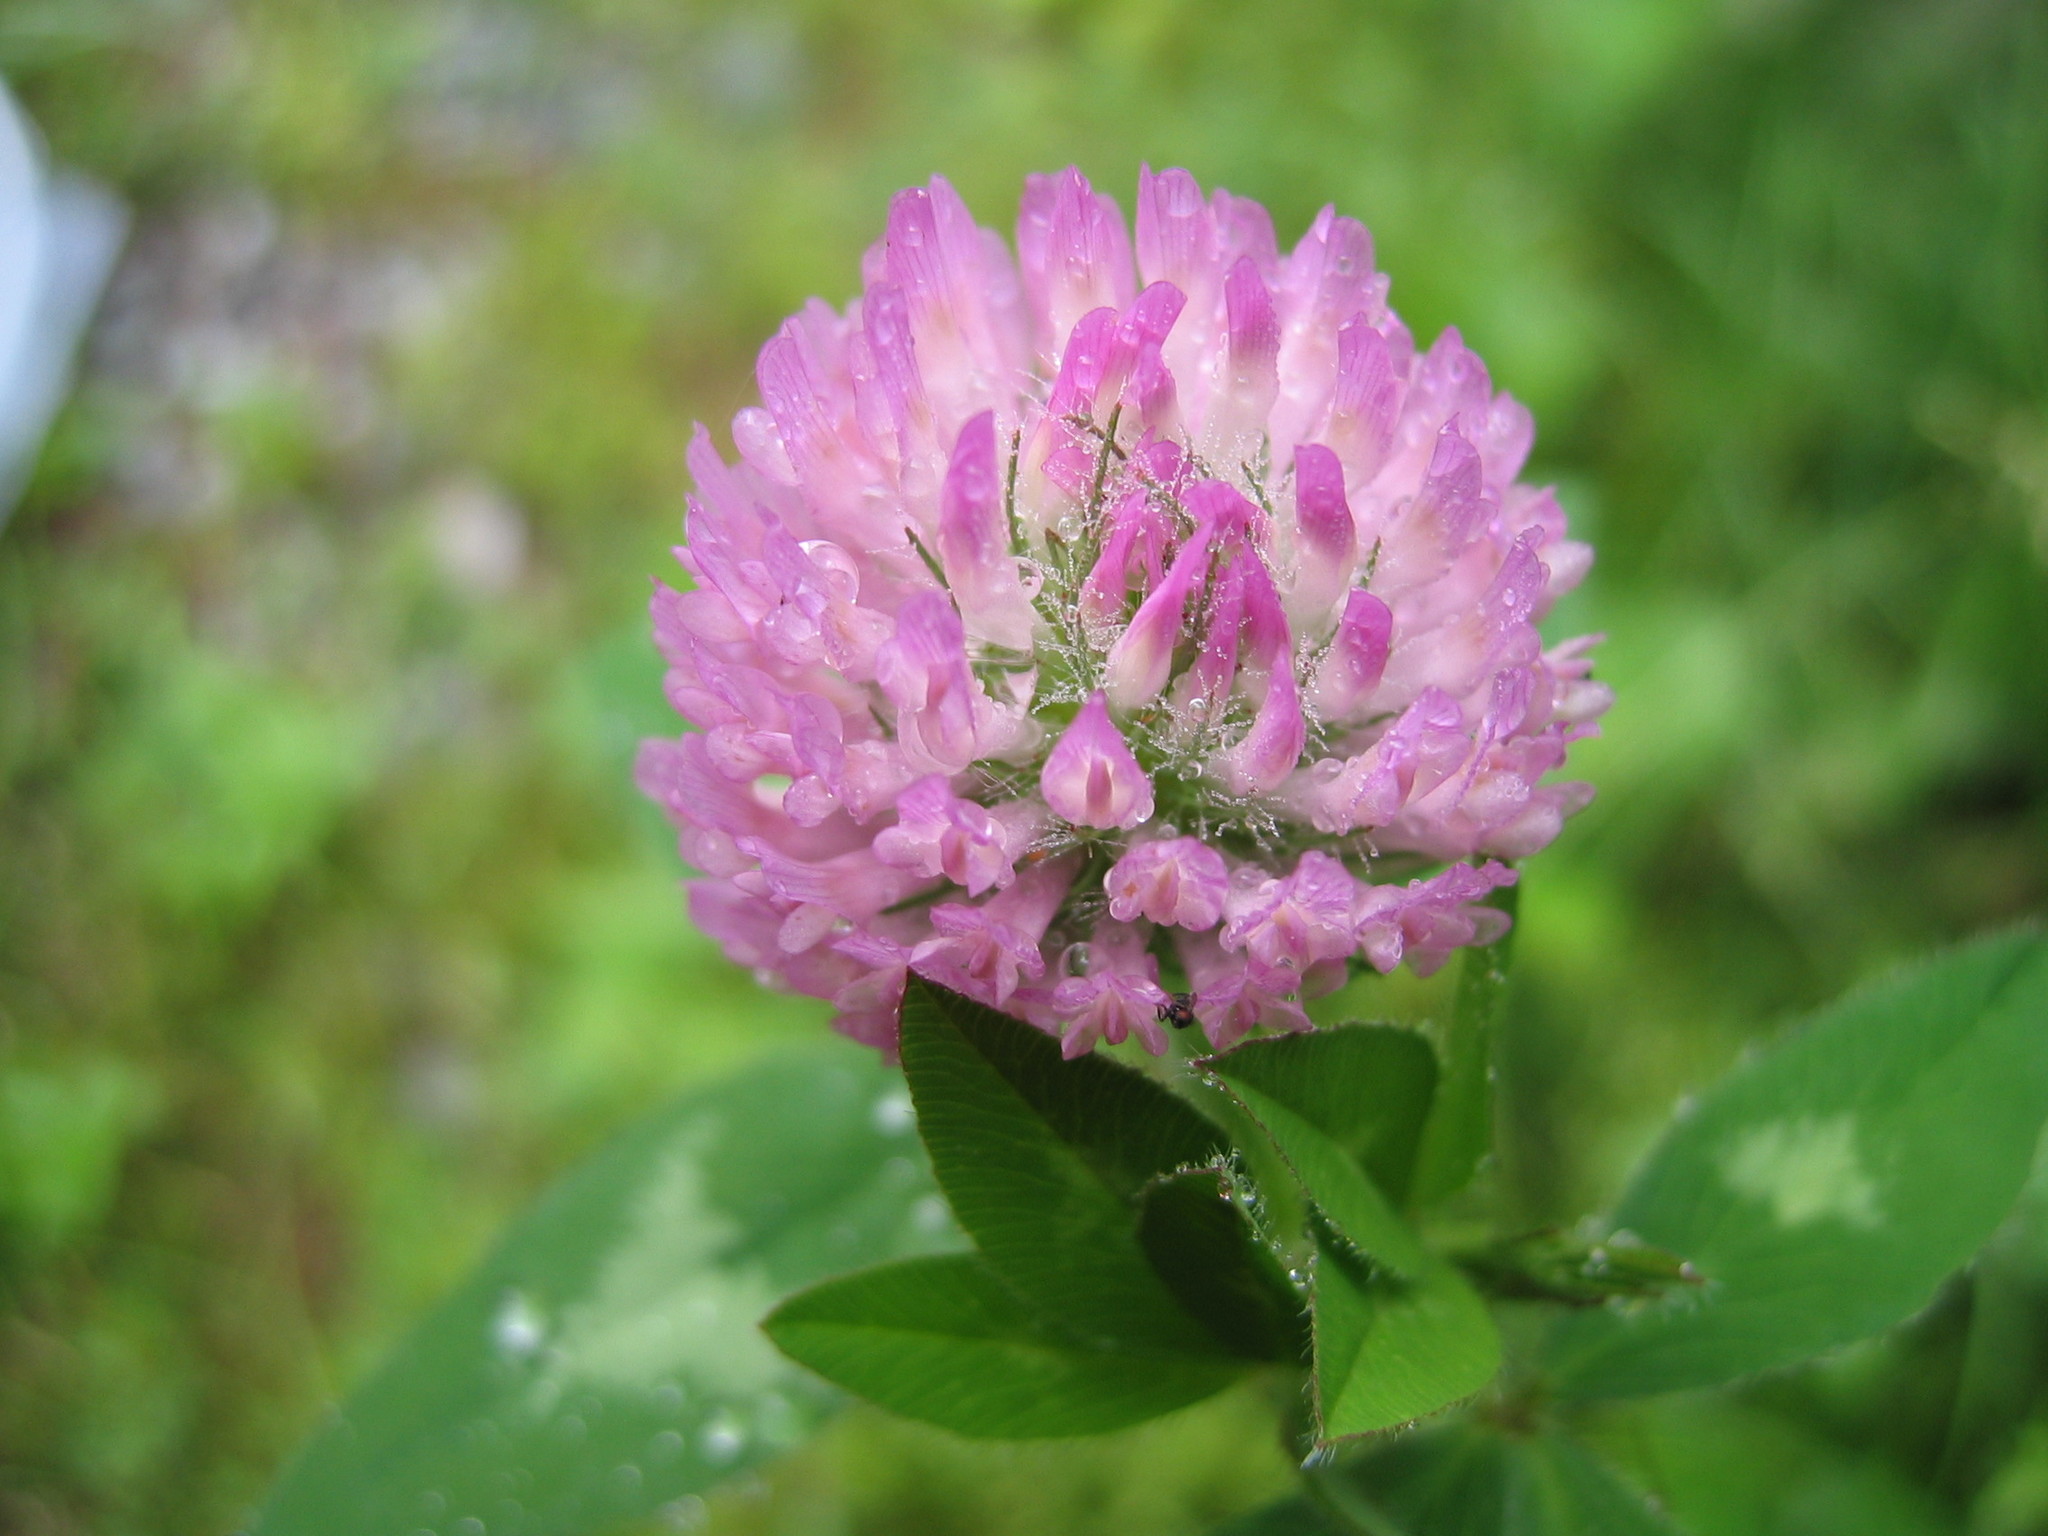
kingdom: Plantae
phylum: Tracheophyta
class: Magnoliopsida
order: Fabales
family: Fabaceae
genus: Trifolium
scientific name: Trifolium pratense
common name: Red clover
